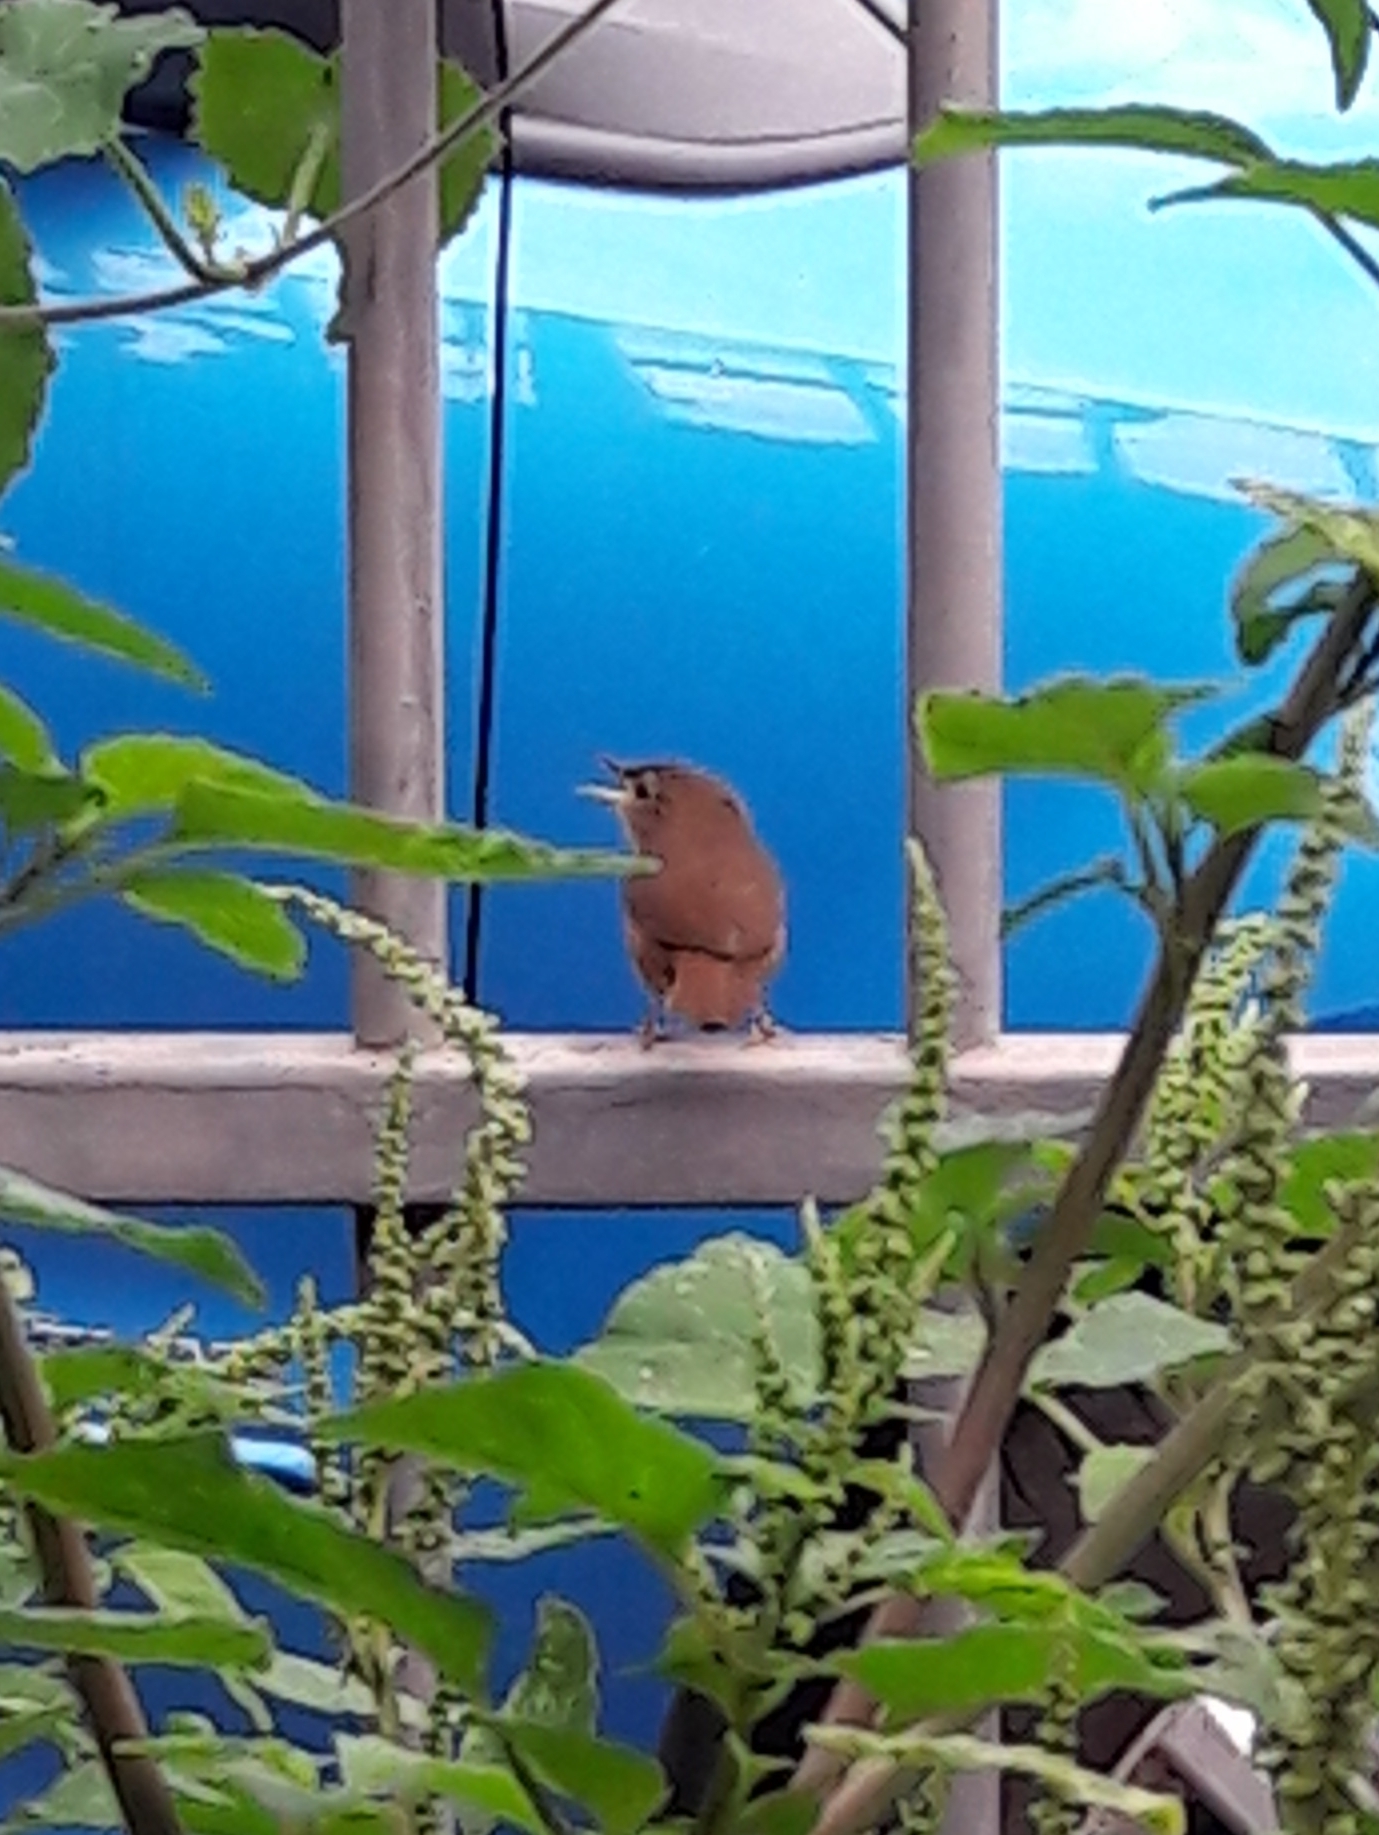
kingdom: Animalia
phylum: Chordata
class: Aves
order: Passeriformes
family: Troglodytidae
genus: Troglodytes
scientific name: Troglodytes aedon
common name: House wren
